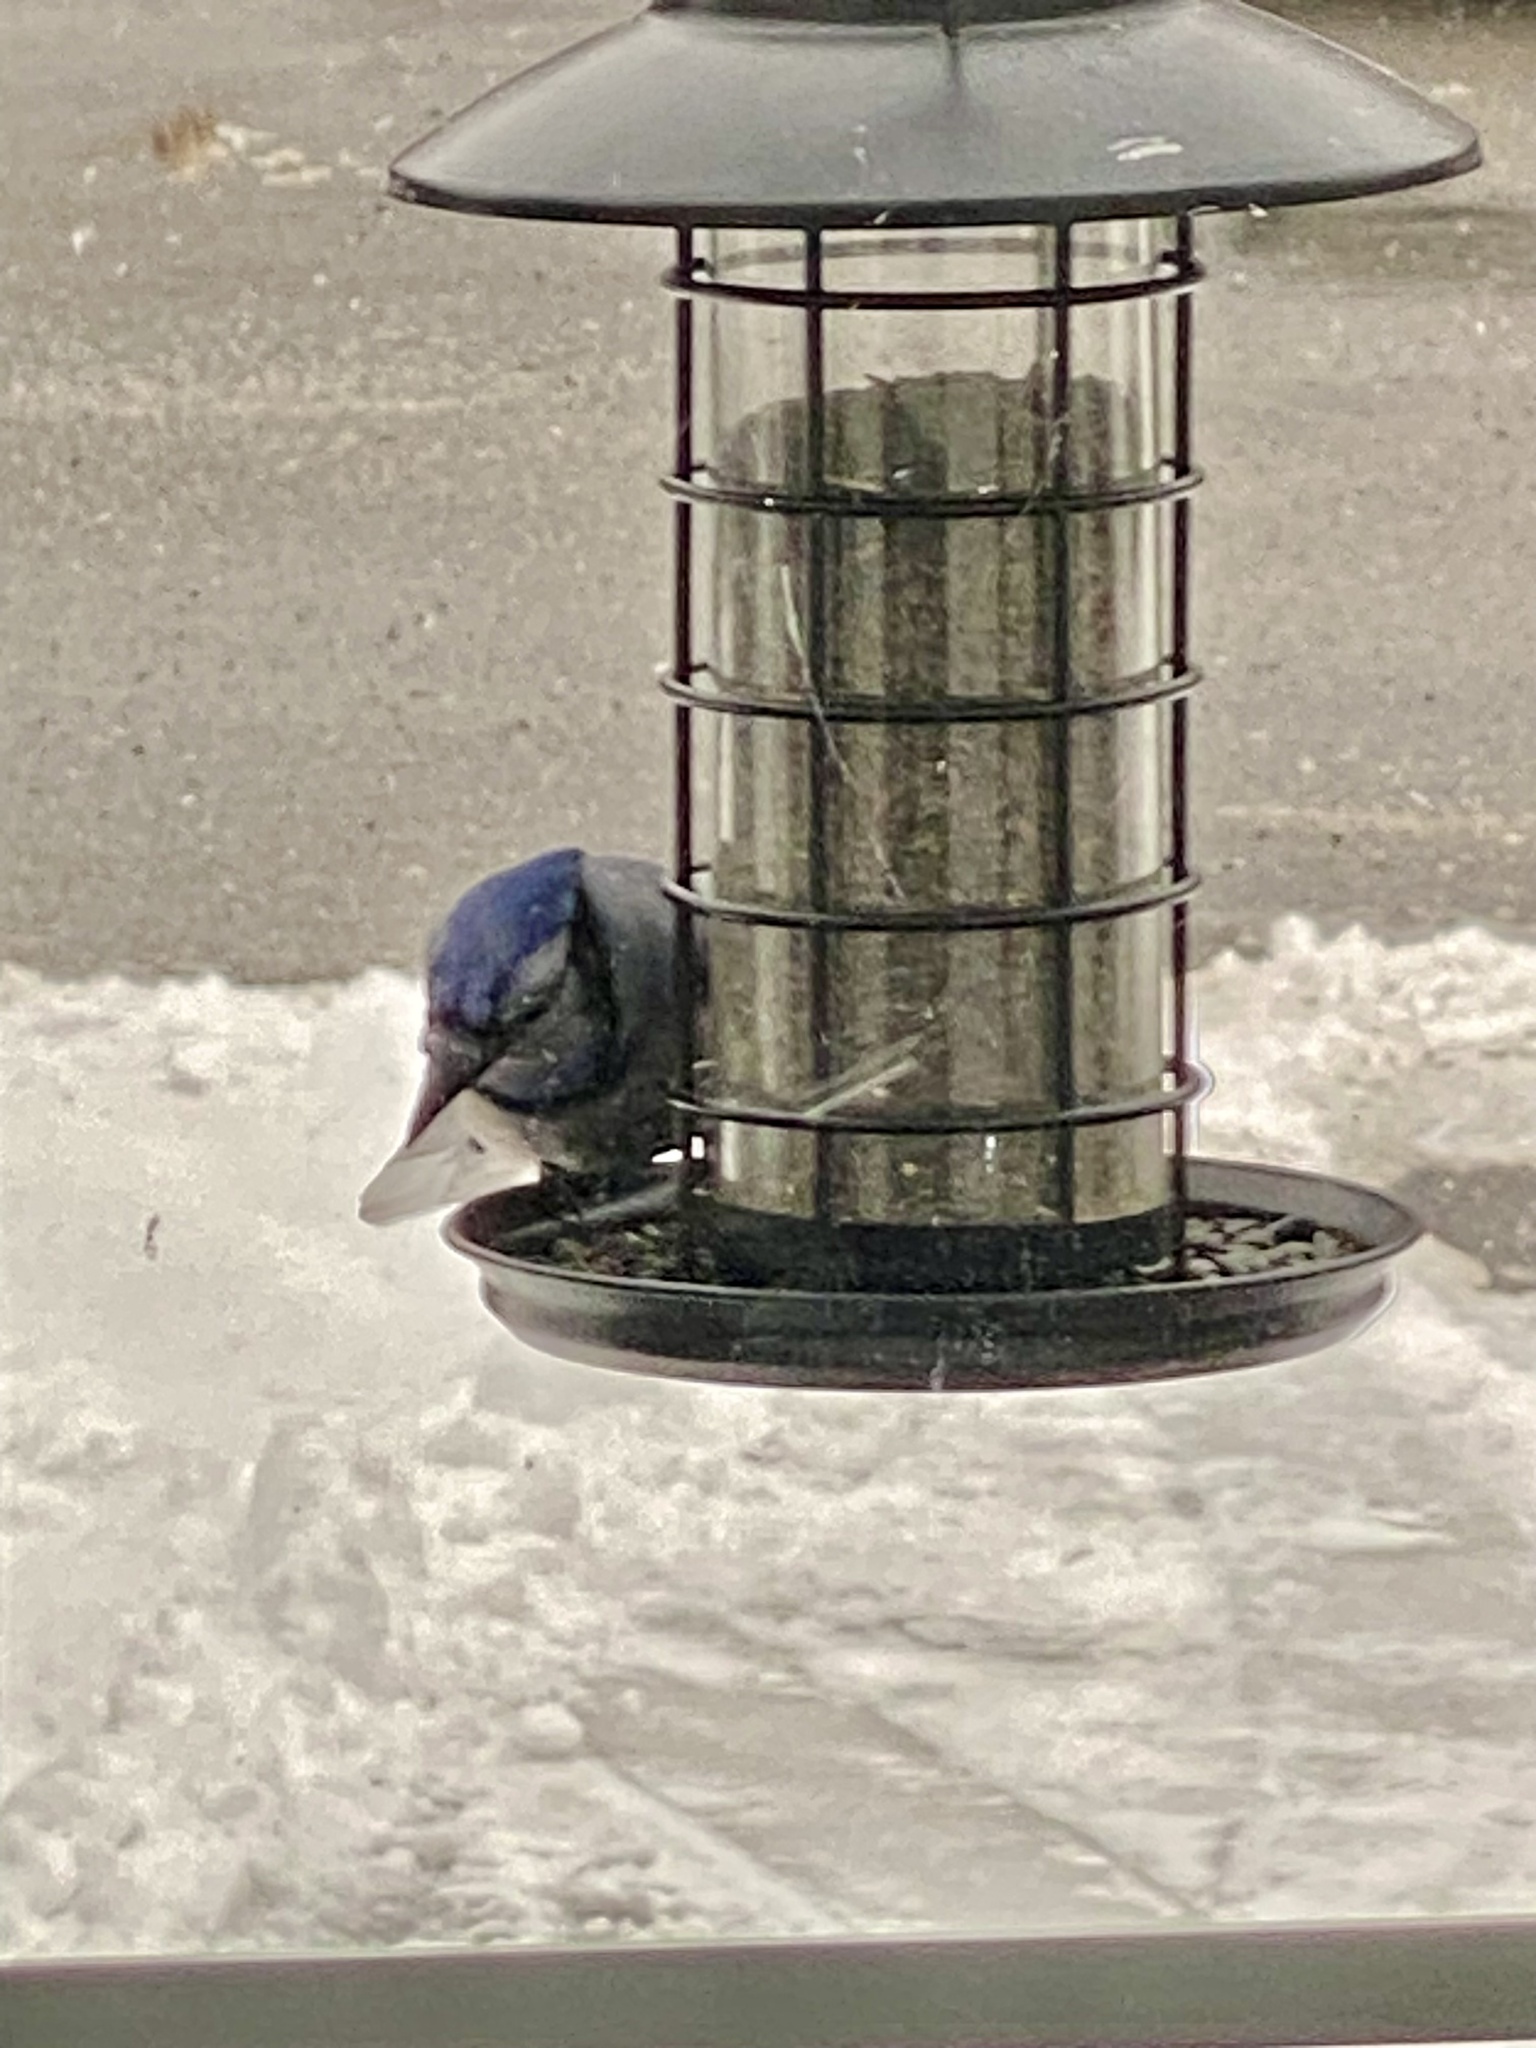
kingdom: Animalia
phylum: Chordata
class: Aves
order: Passeriformes
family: Corvidae
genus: Cyanocitta
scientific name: Cyanocitta cristata
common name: Blue jay
